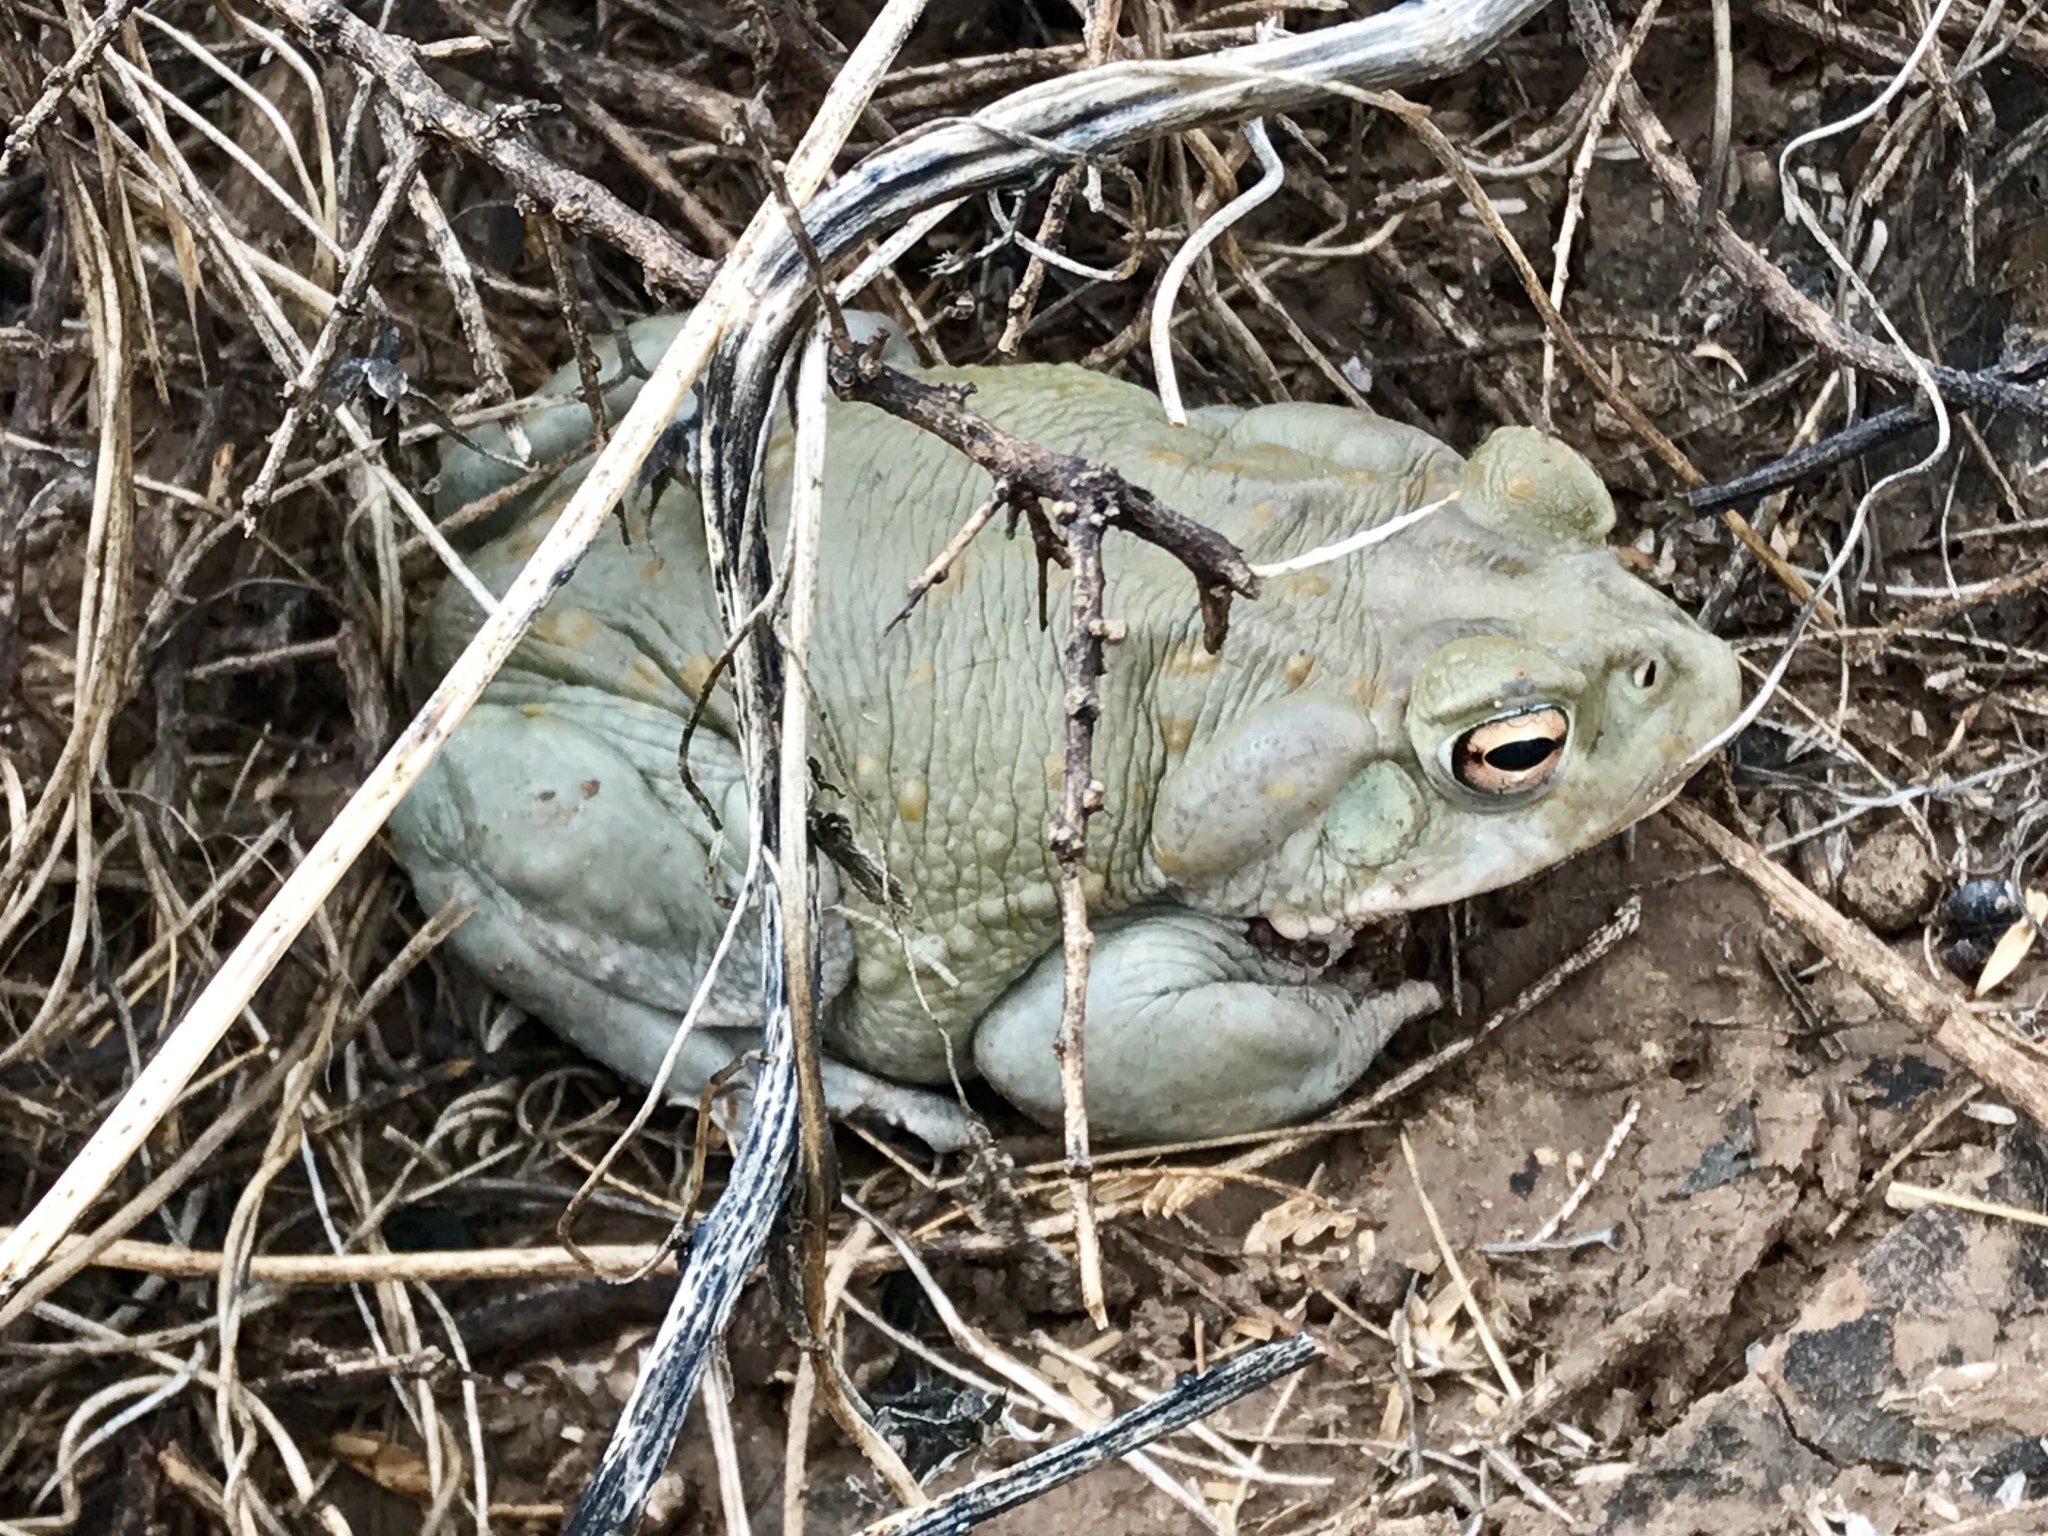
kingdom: Animalia
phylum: Chordata
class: Amphibia
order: Anura
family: Bufonidae
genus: Incilius
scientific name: Incilius alvarius
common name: Sonoran desert toad
